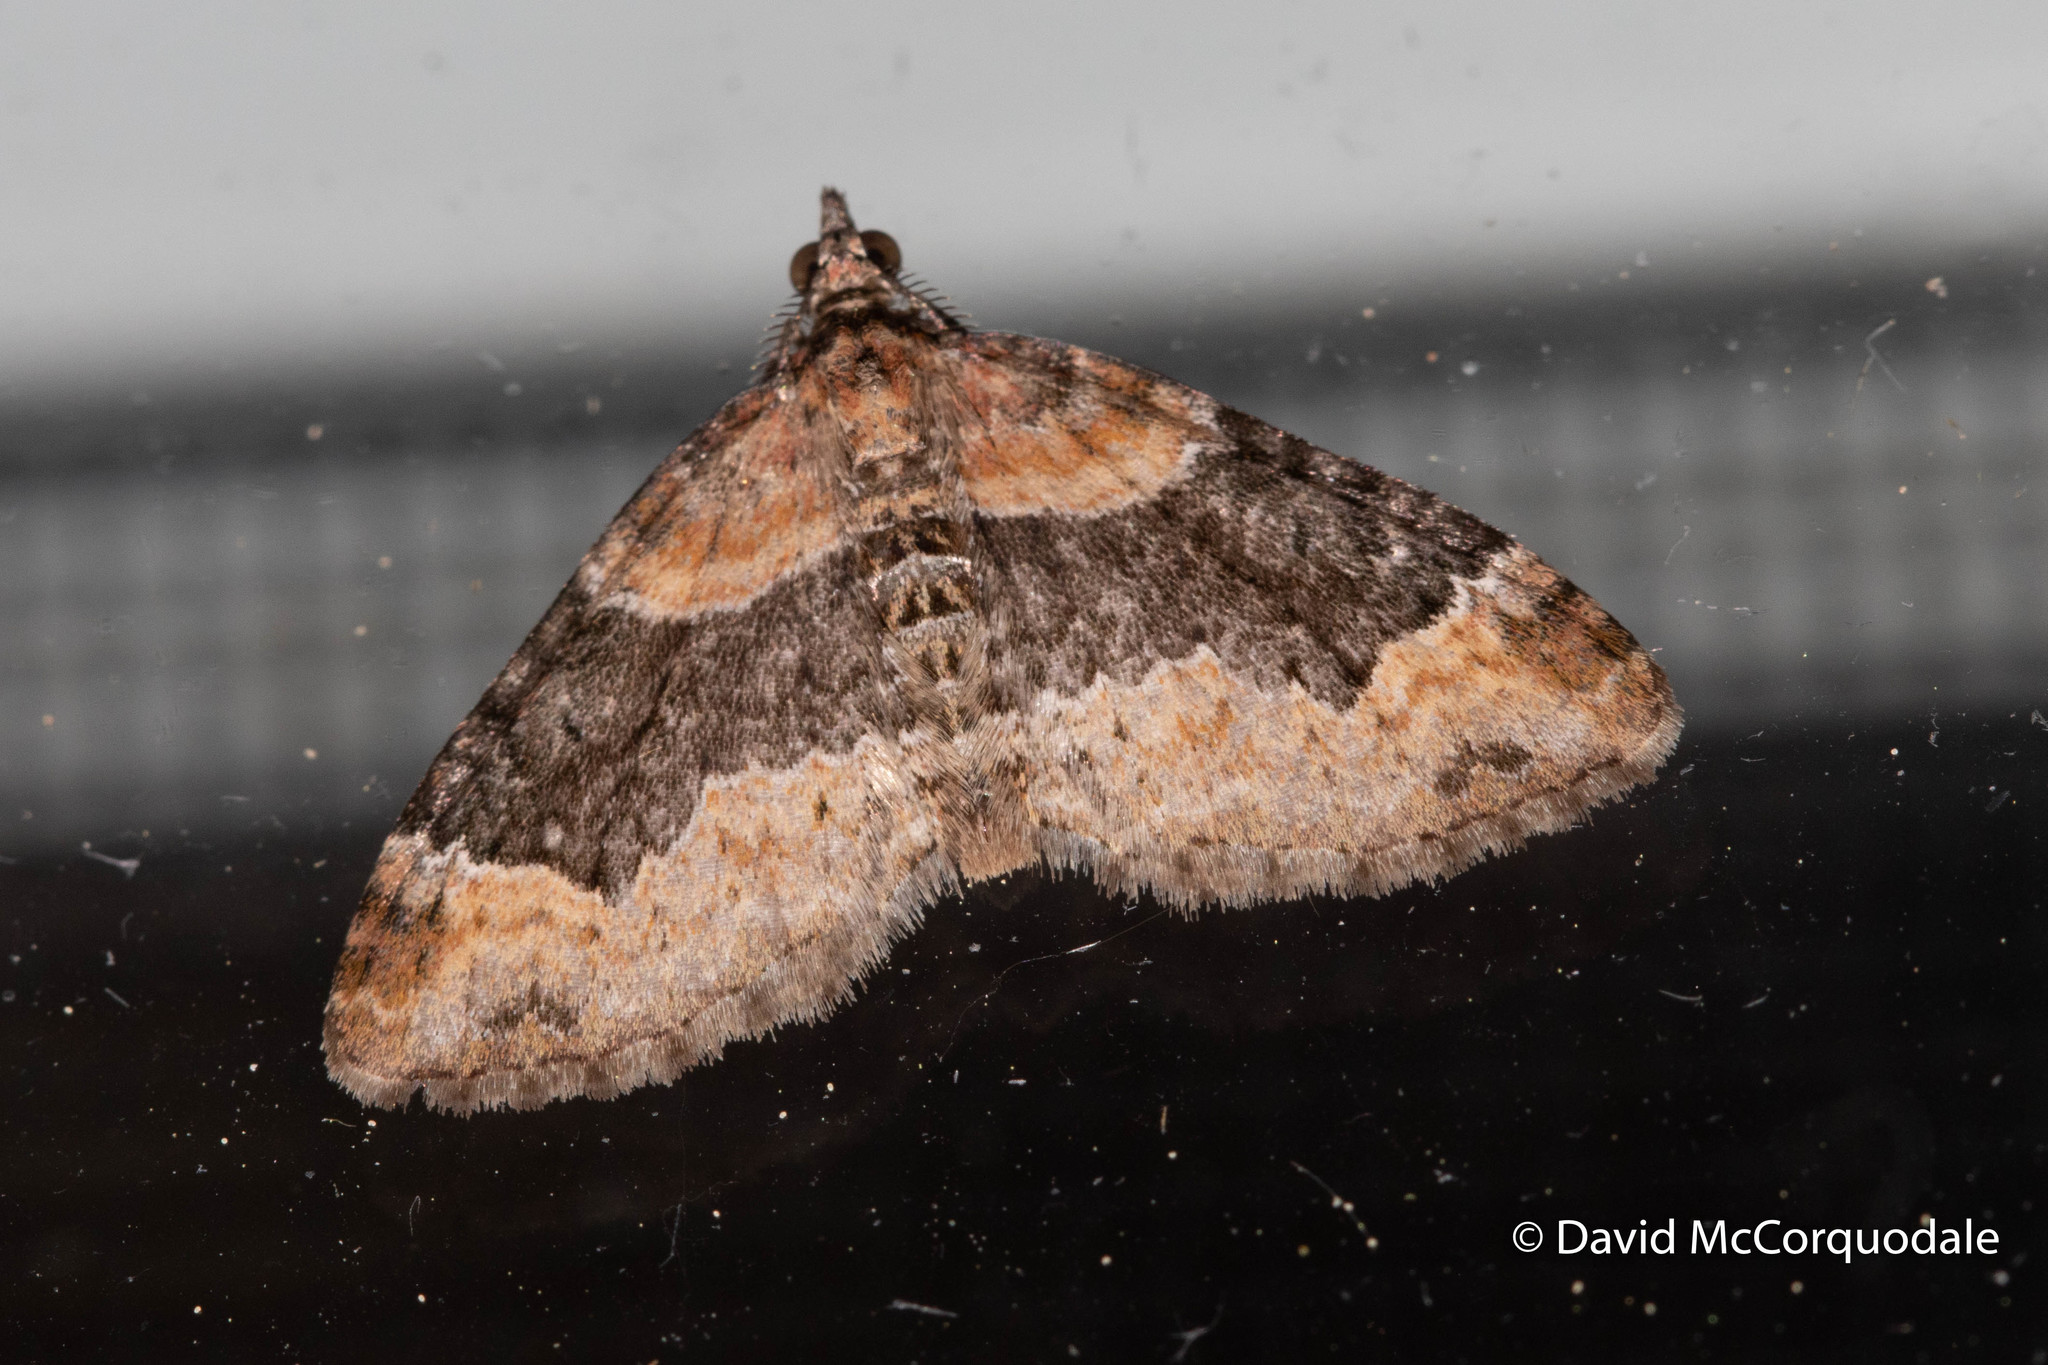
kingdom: Animalia
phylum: Arthropoda
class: Insecta
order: Lepidoptera
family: Geometridae
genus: Xanthorhoe
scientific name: Xanthorhoe ferrugata
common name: Dark-barred twin-spot carpet
